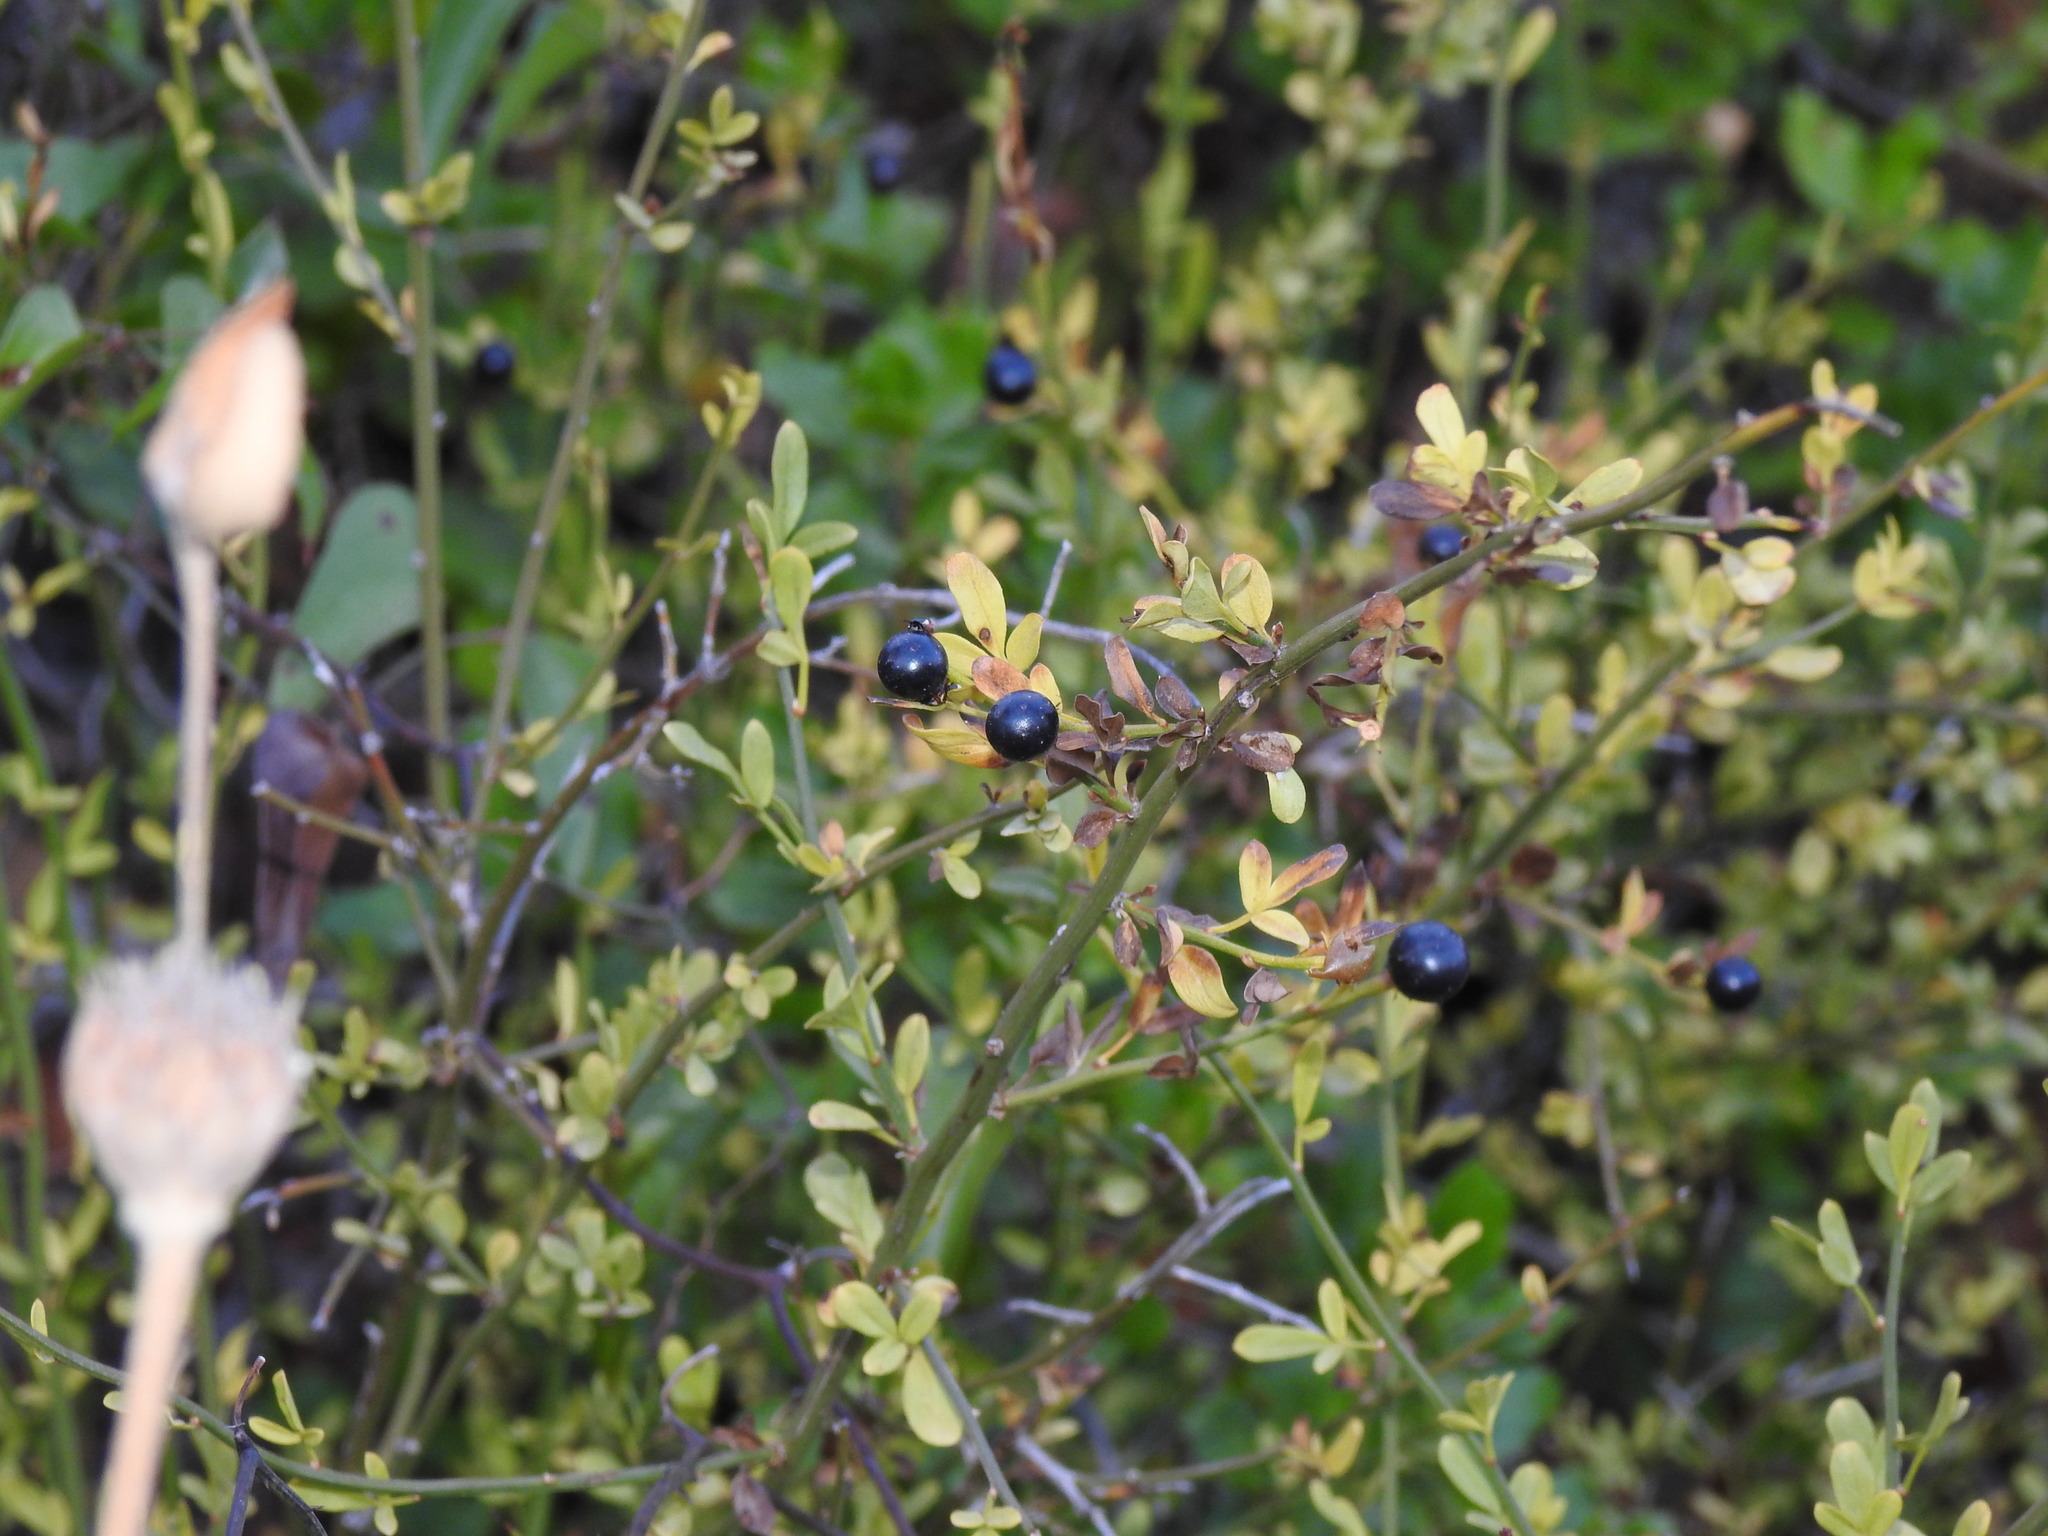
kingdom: Plantae
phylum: Tracheophyta
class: Magnoliopsida
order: Lamiales
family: Oleaceae
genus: Chrysojasminum
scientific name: Chrysojasminum fruticans
